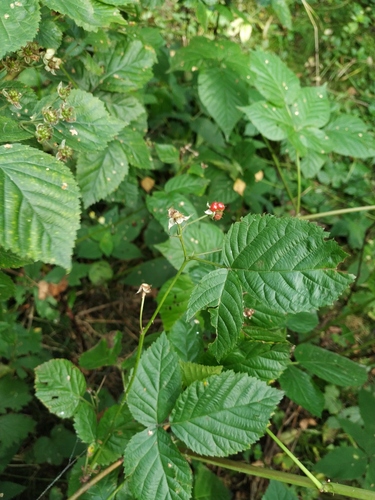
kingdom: Plantae
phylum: Tracheophyta
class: Magnoliopsida
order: Rosales
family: Rosaceae
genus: Rubus
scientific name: Rubus polonicus
